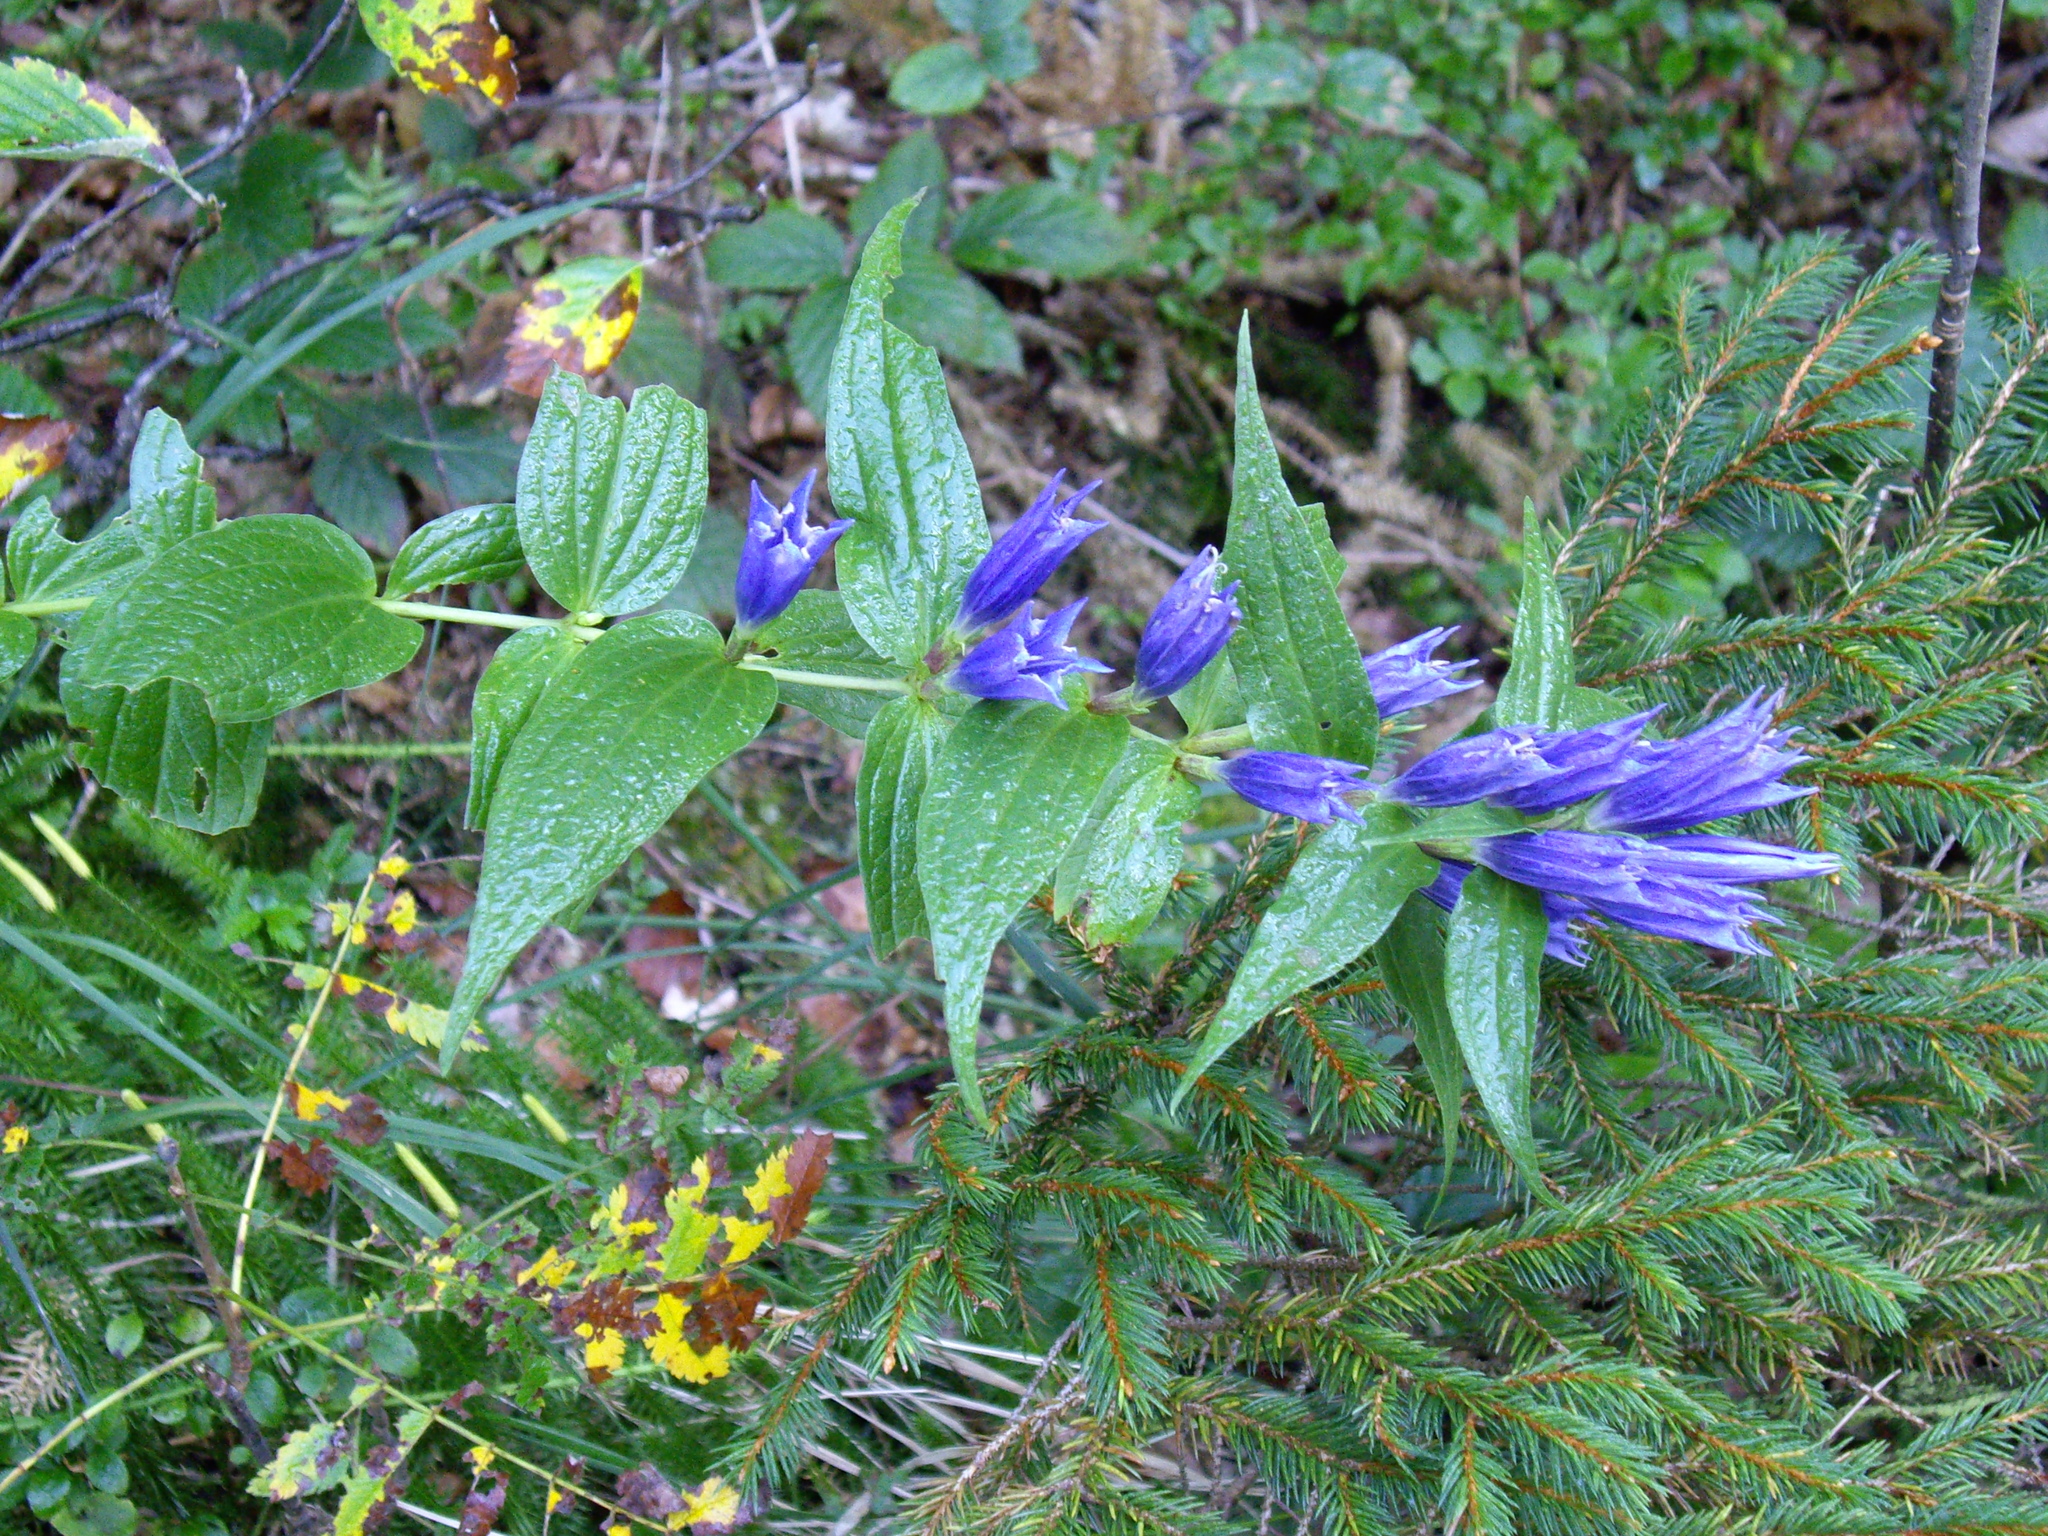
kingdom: Plantae
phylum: Tracheophyta
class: Magnoliopsida
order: Gentianales
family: Gentianaceae
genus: Gentiana
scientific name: Gentiana asclepiadea
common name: Willow gentian
